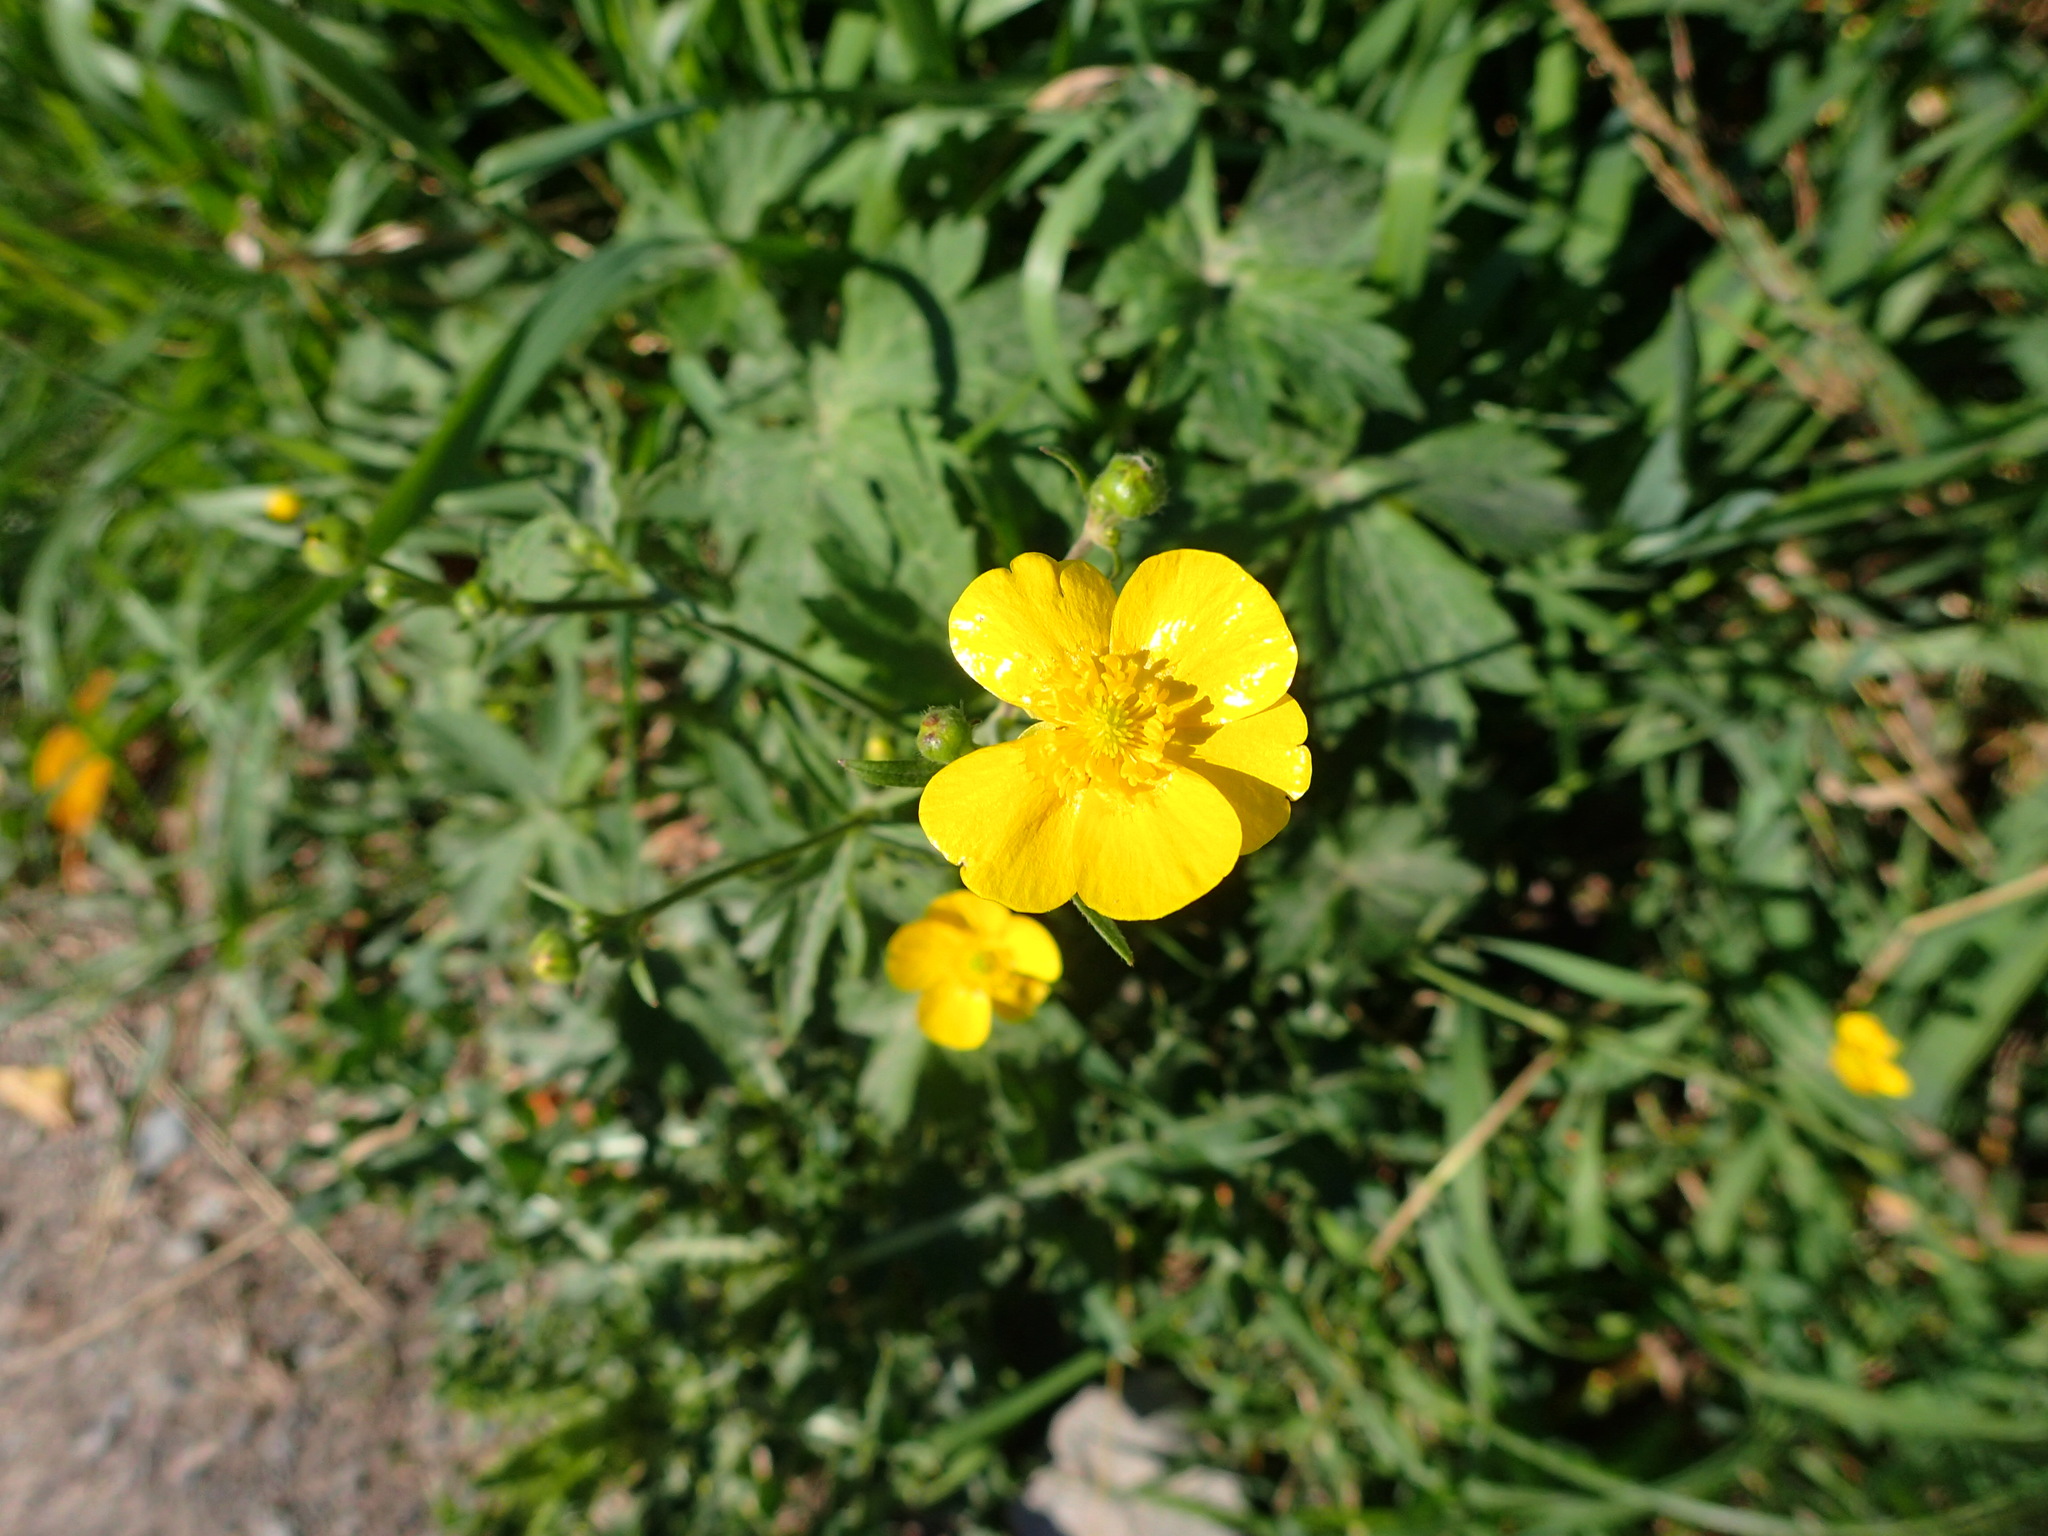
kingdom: Plantae
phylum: Tracheophyta
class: Magnoliopsida
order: Ranunculales
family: Ranunculaceae
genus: Ranunculus
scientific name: Ranunculus acris
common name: Meadow buttercup
